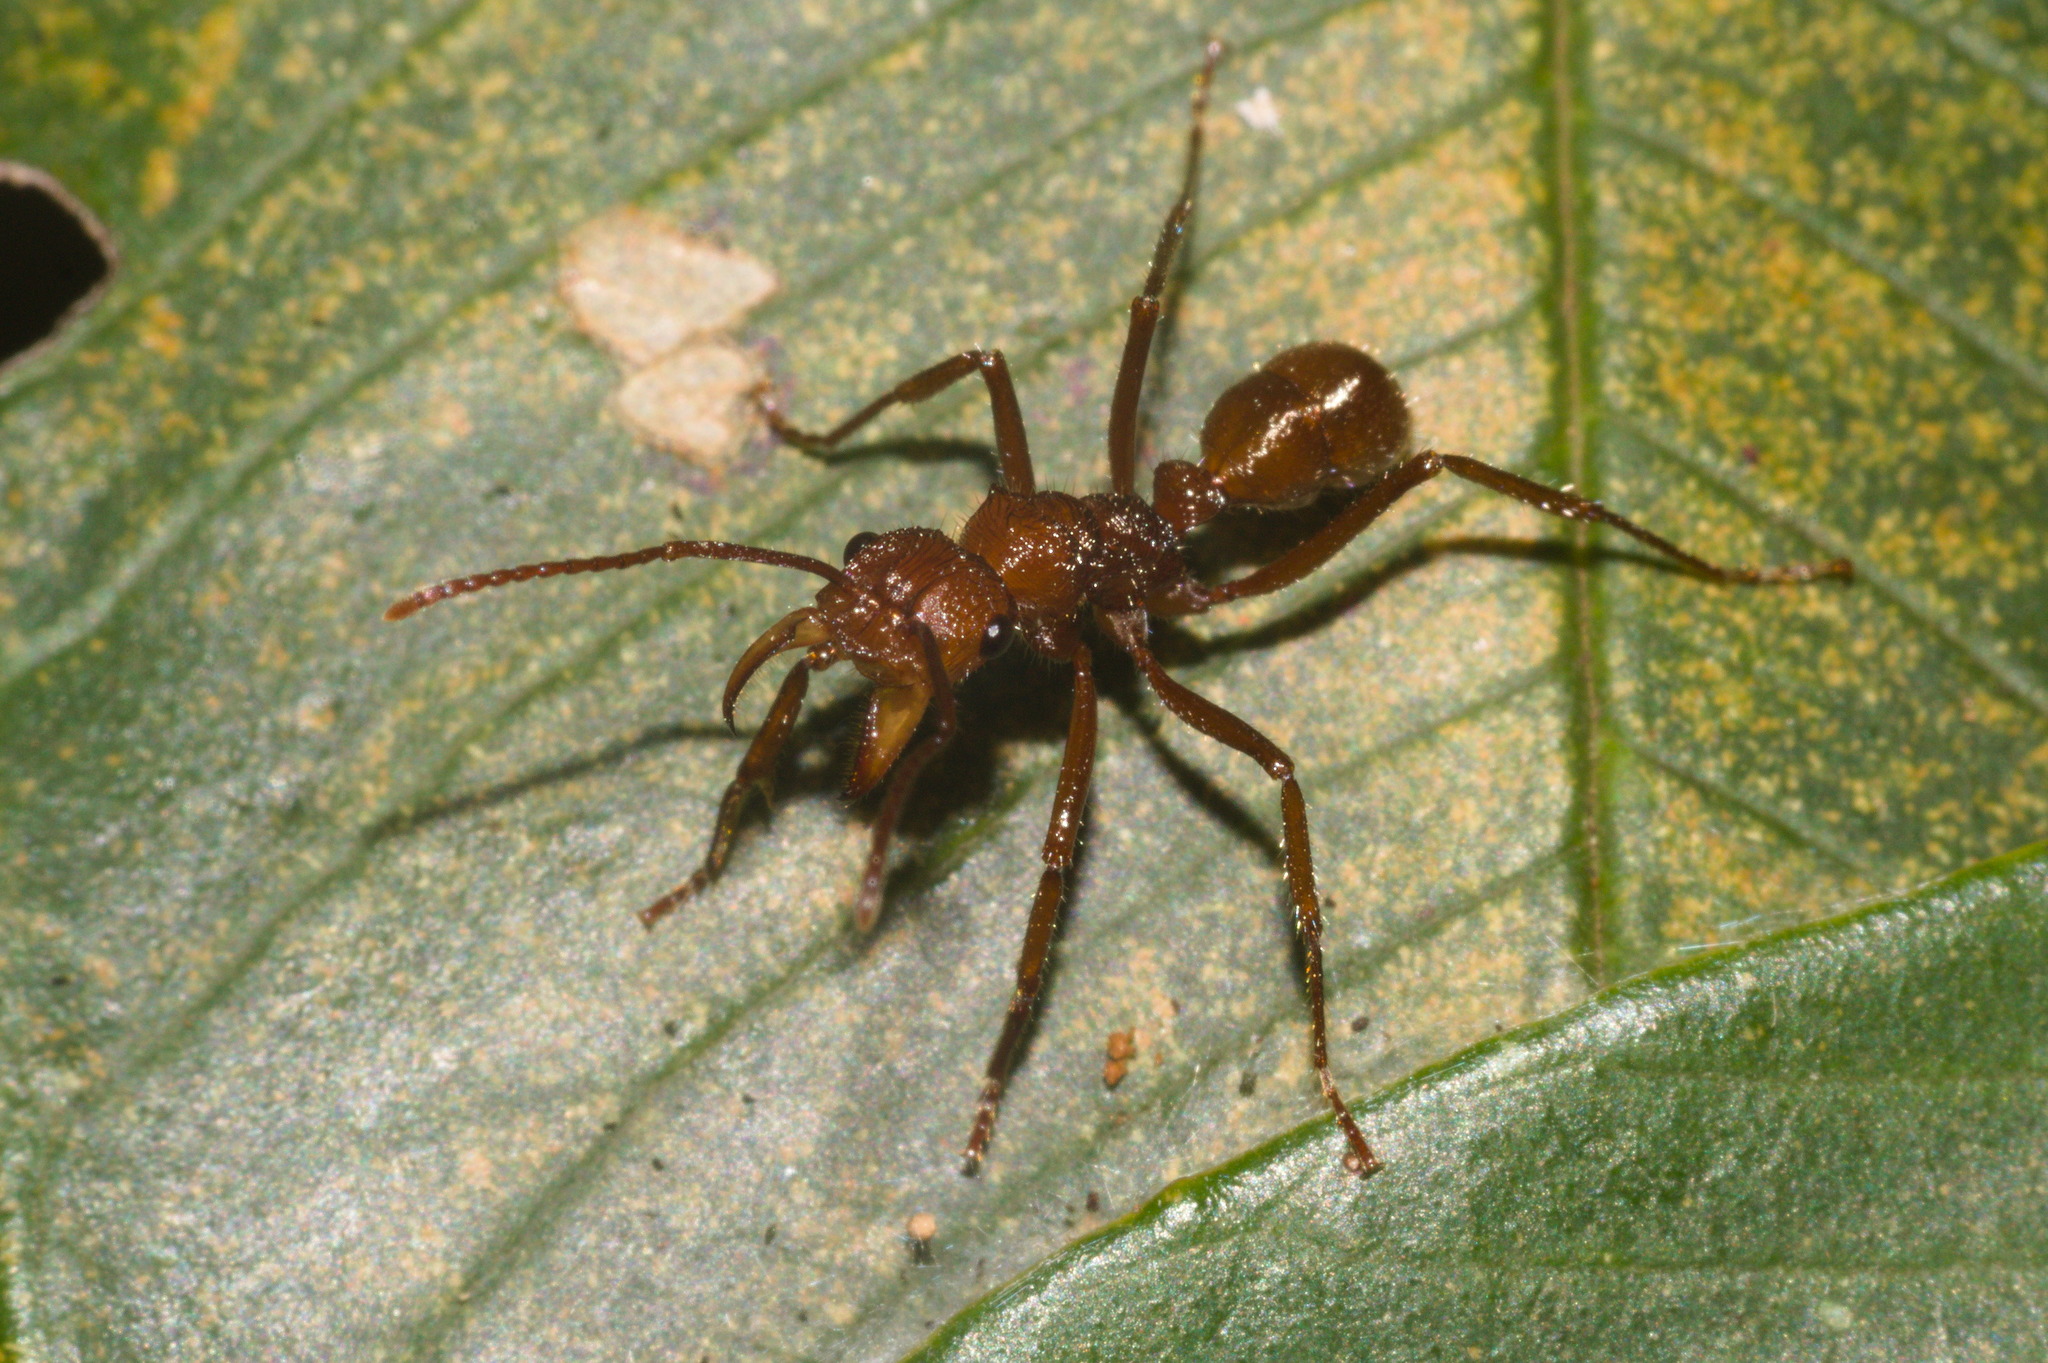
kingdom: Animalia
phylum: Arthropoda
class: Insecta
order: Hymenoptera
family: Formicidae
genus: Ectatomma
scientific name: Ectatomma tuberculatum
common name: Ant
